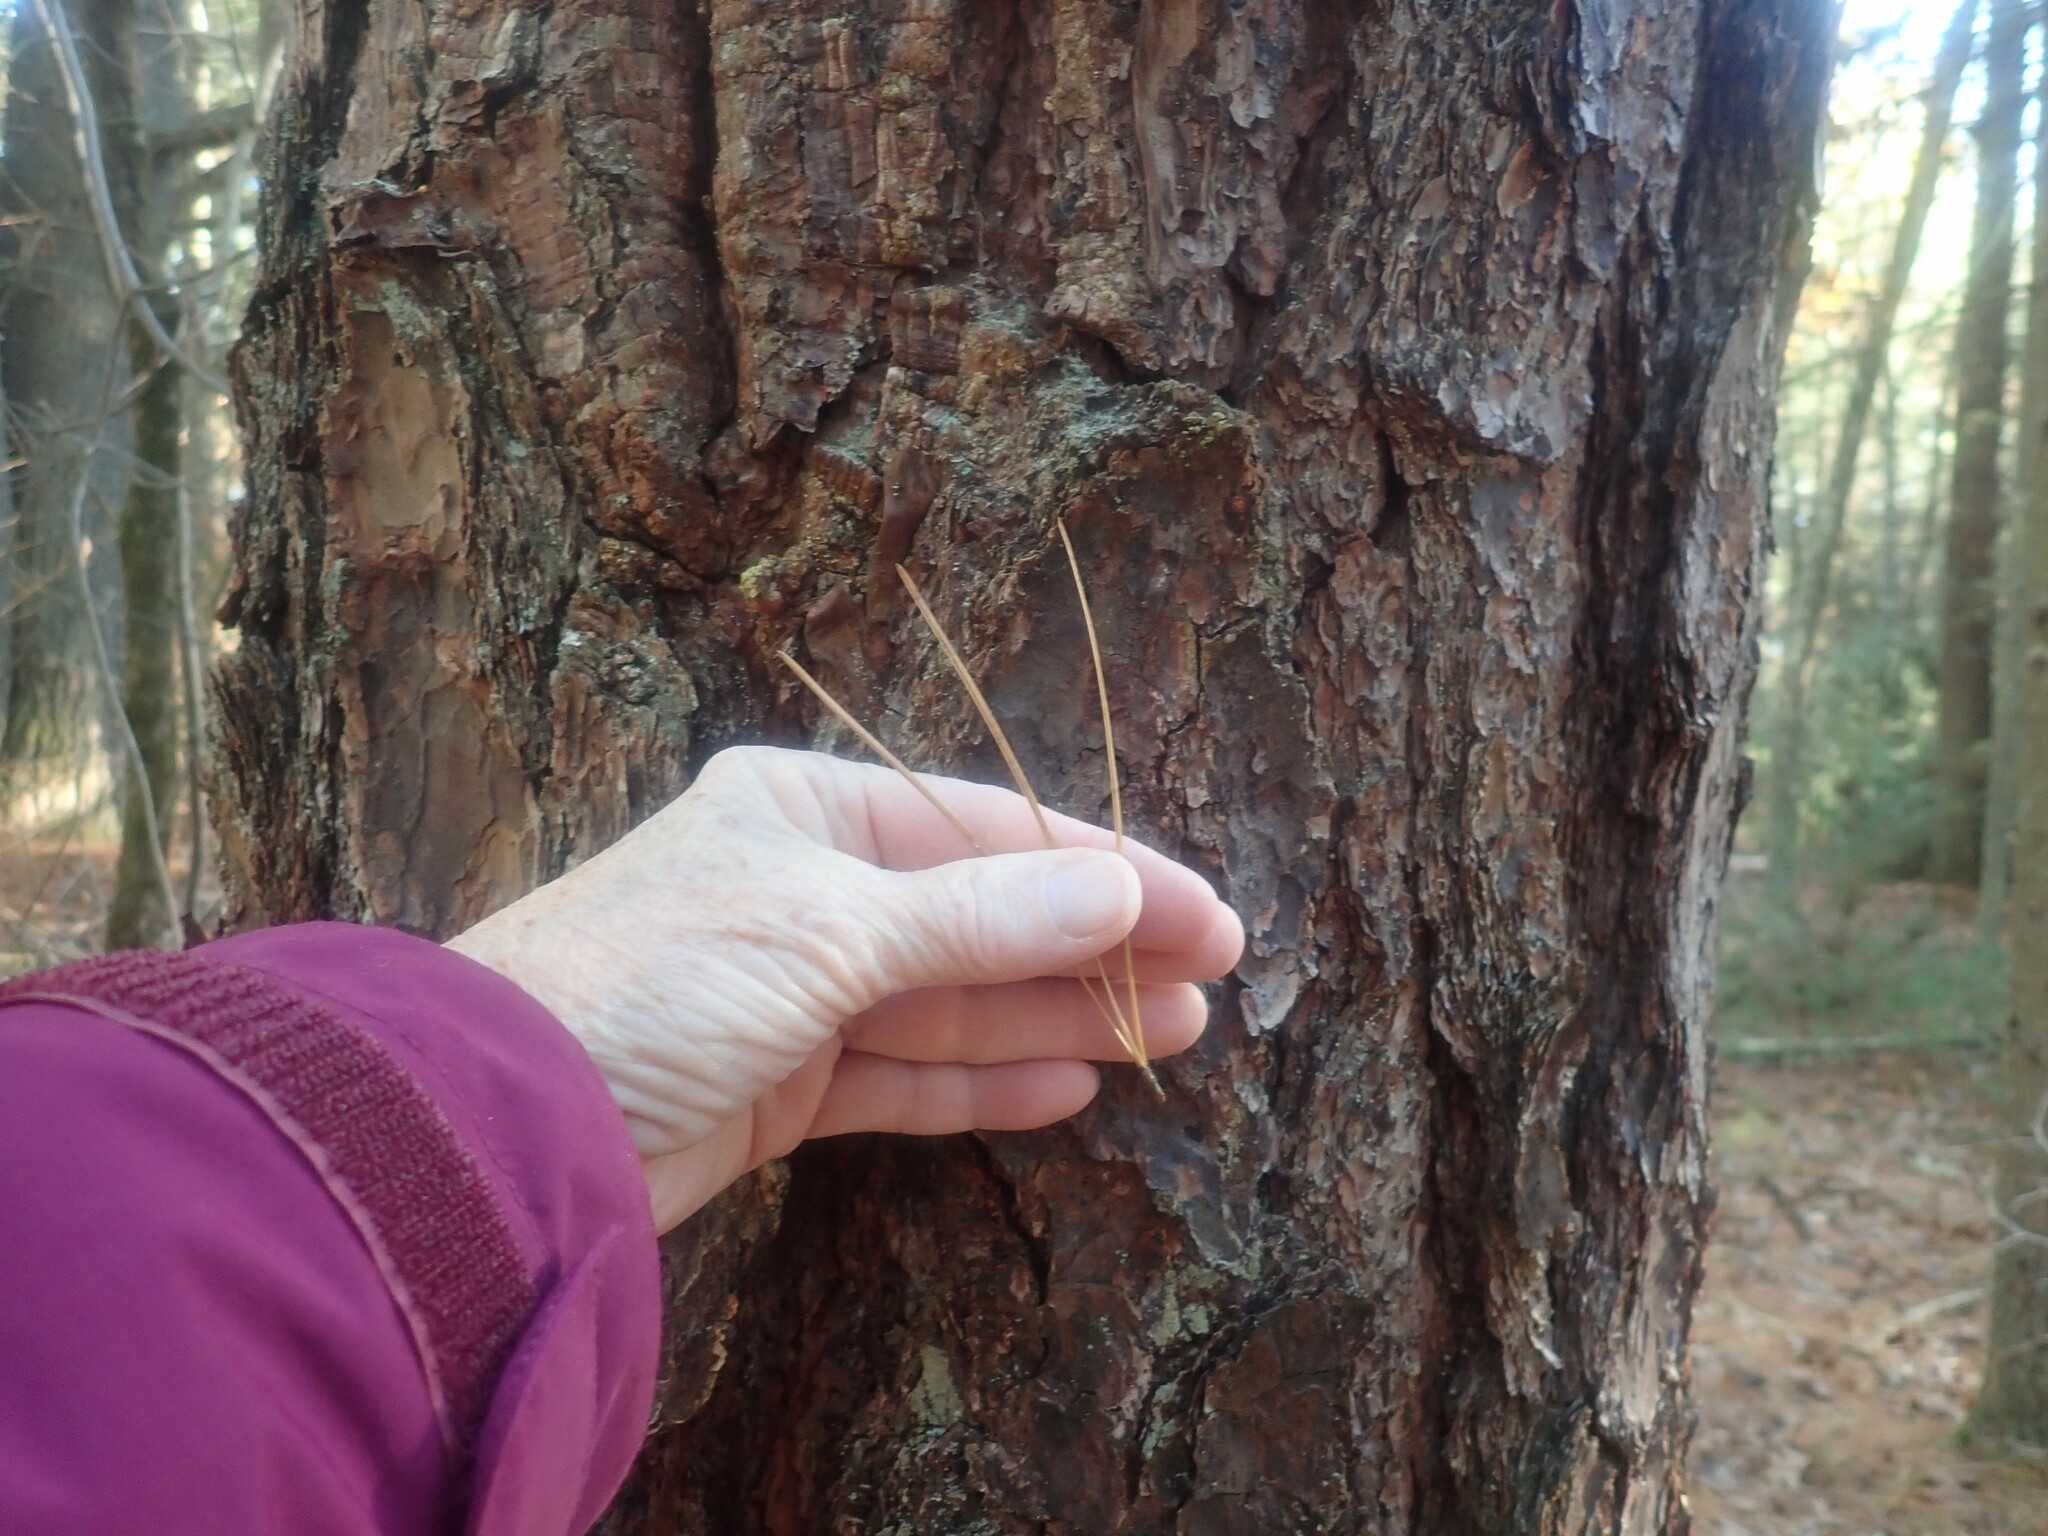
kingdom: Plantae
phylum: Tracheophyta
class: Pinopsida
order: Pinales
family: Pinaceae
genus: Pinus
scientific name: Pinus rigida
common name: Pitch pine
